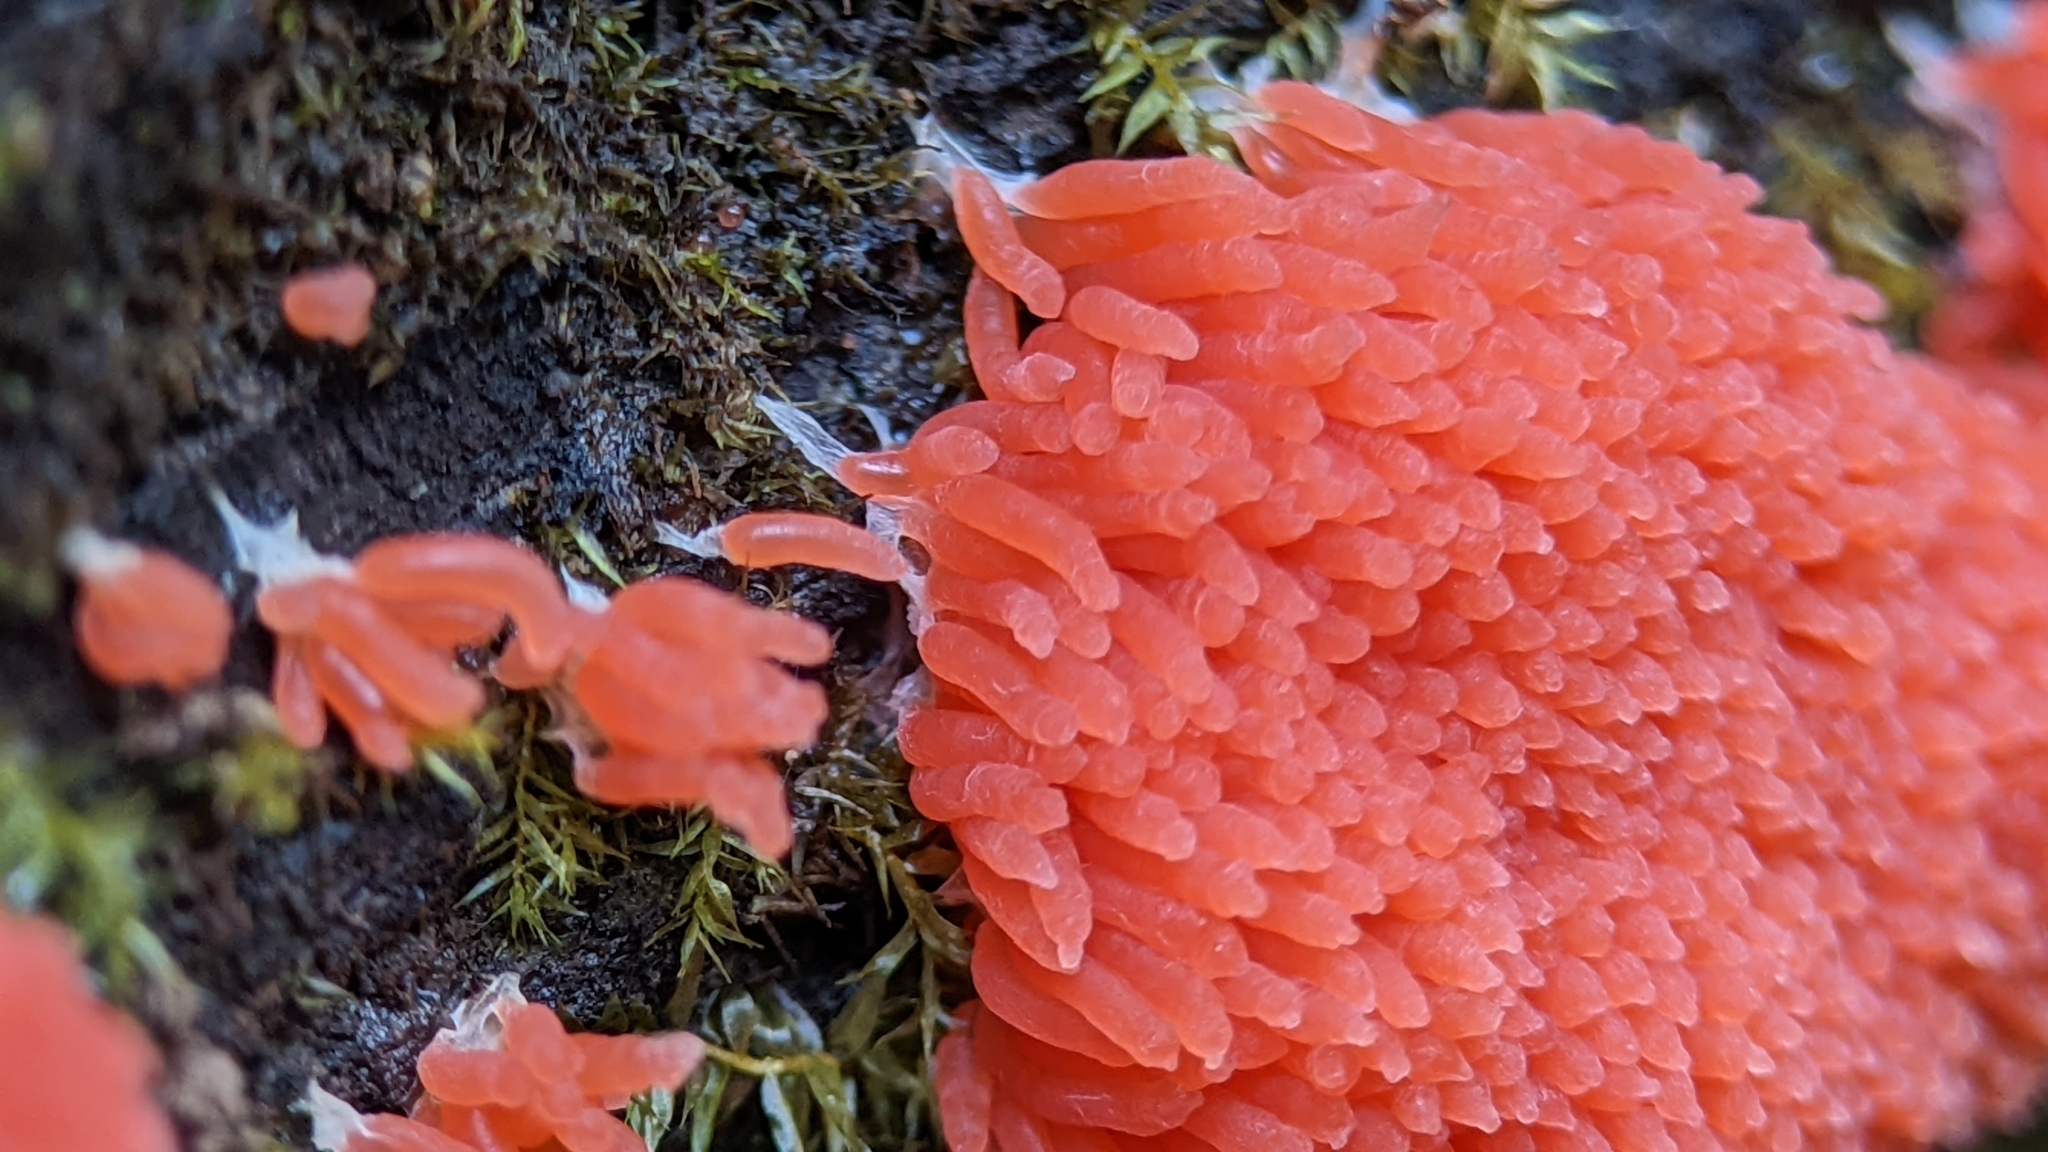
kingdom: Protozoa
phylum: Mycetozoa
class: Myxomycetes
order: Cribrariales
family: Tubiferaceae
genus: Tubifera
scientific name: Tubifera ferruginosa
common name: Red raspberry slime mold
